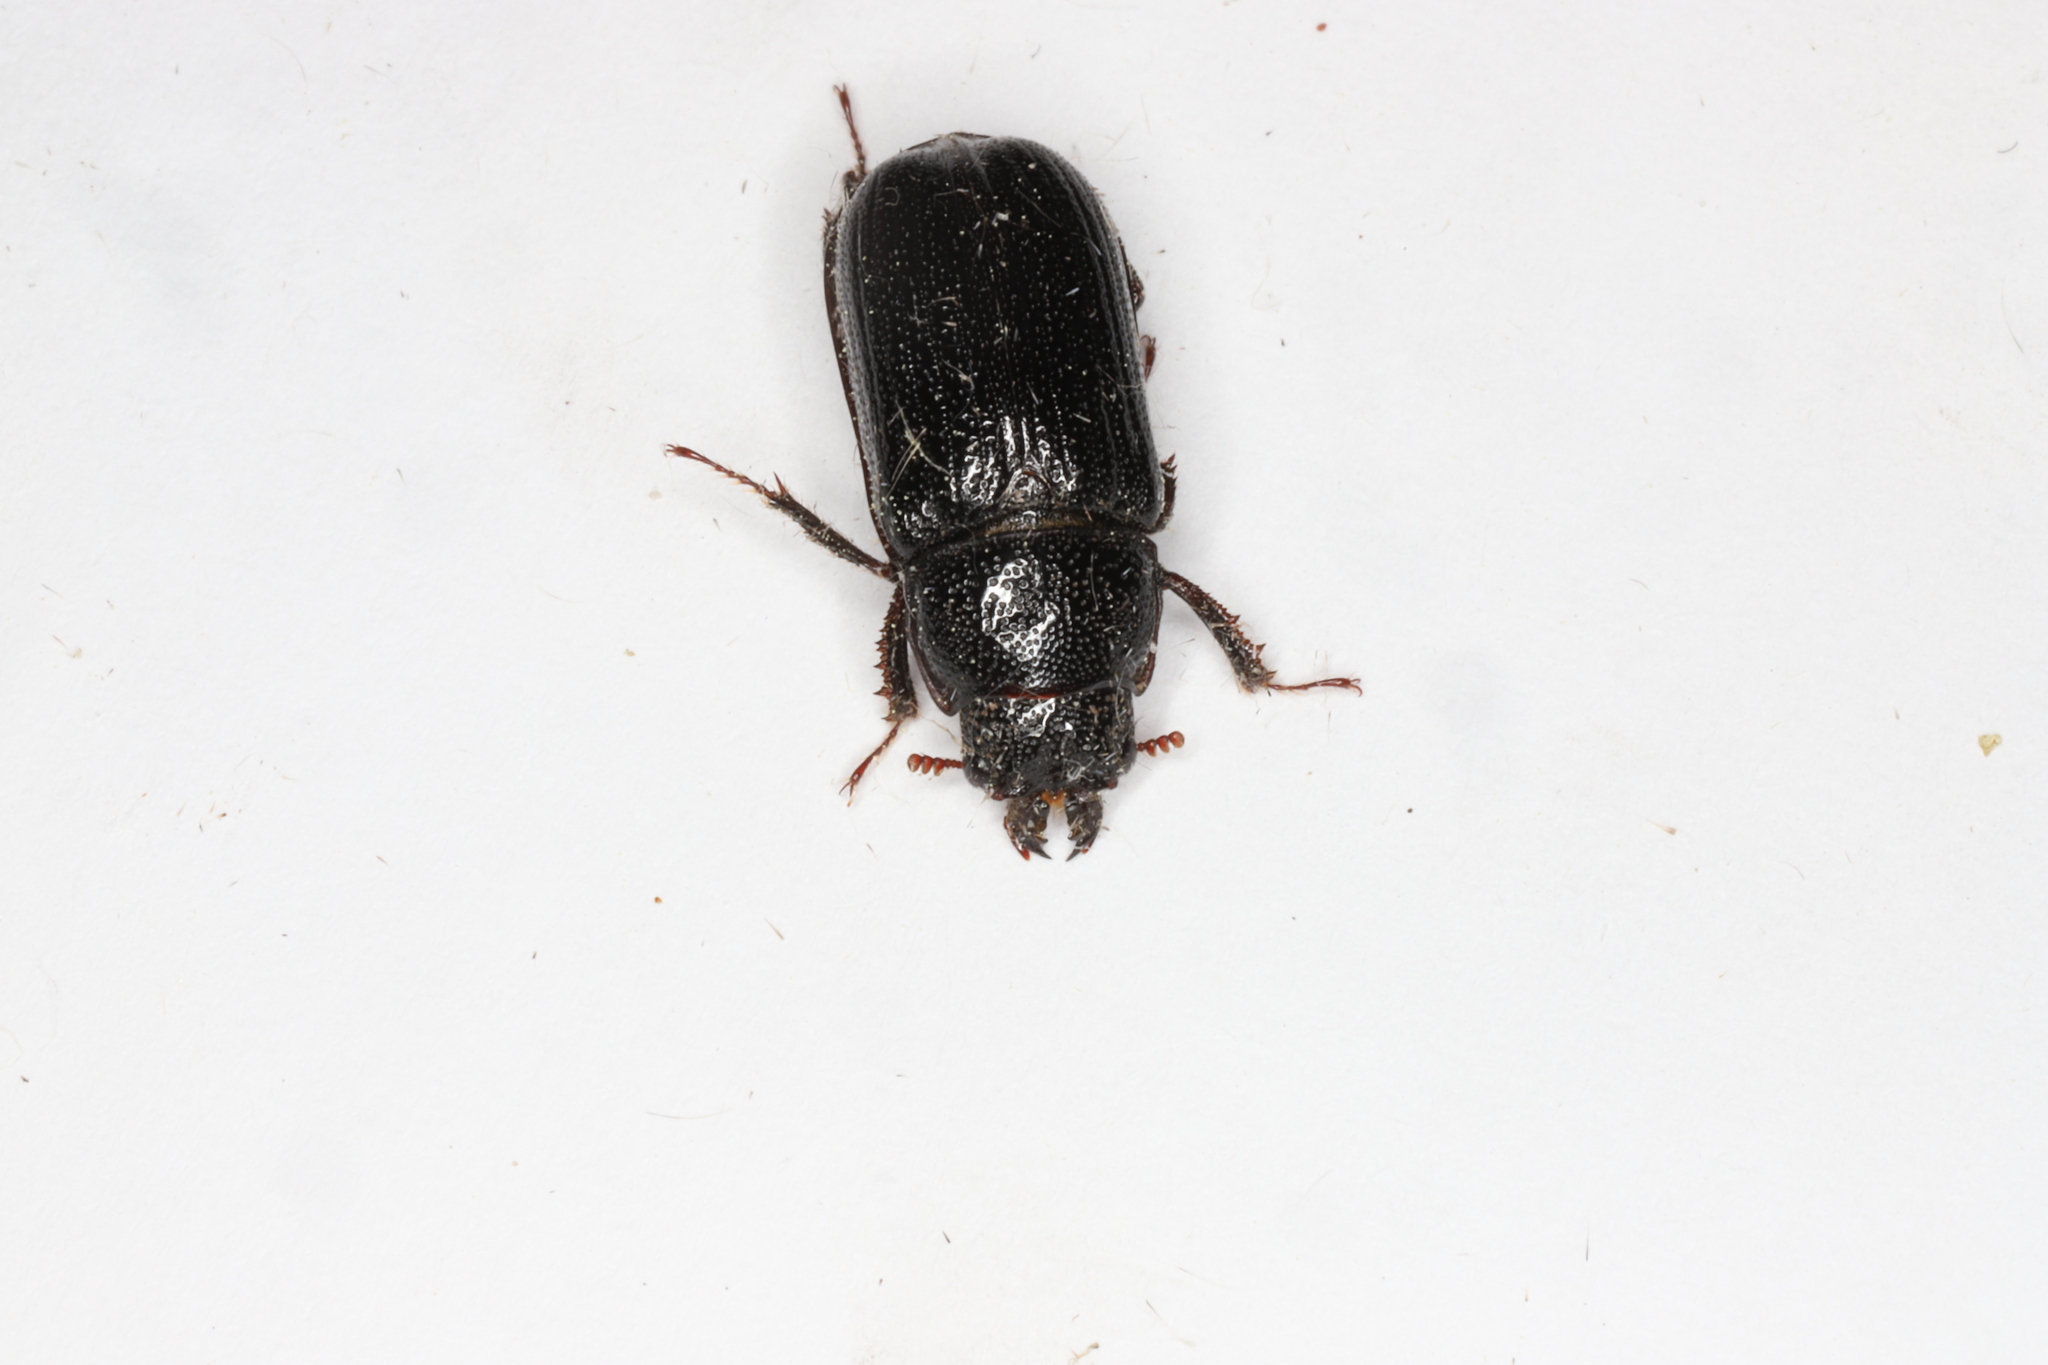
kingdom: Animalia
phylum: Arthropoda
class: Insecta
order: Coleoptera
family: Lucanidae
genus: Ceruchus
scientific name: Ceruchus piceus
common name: Red-rot decay stag beetle
